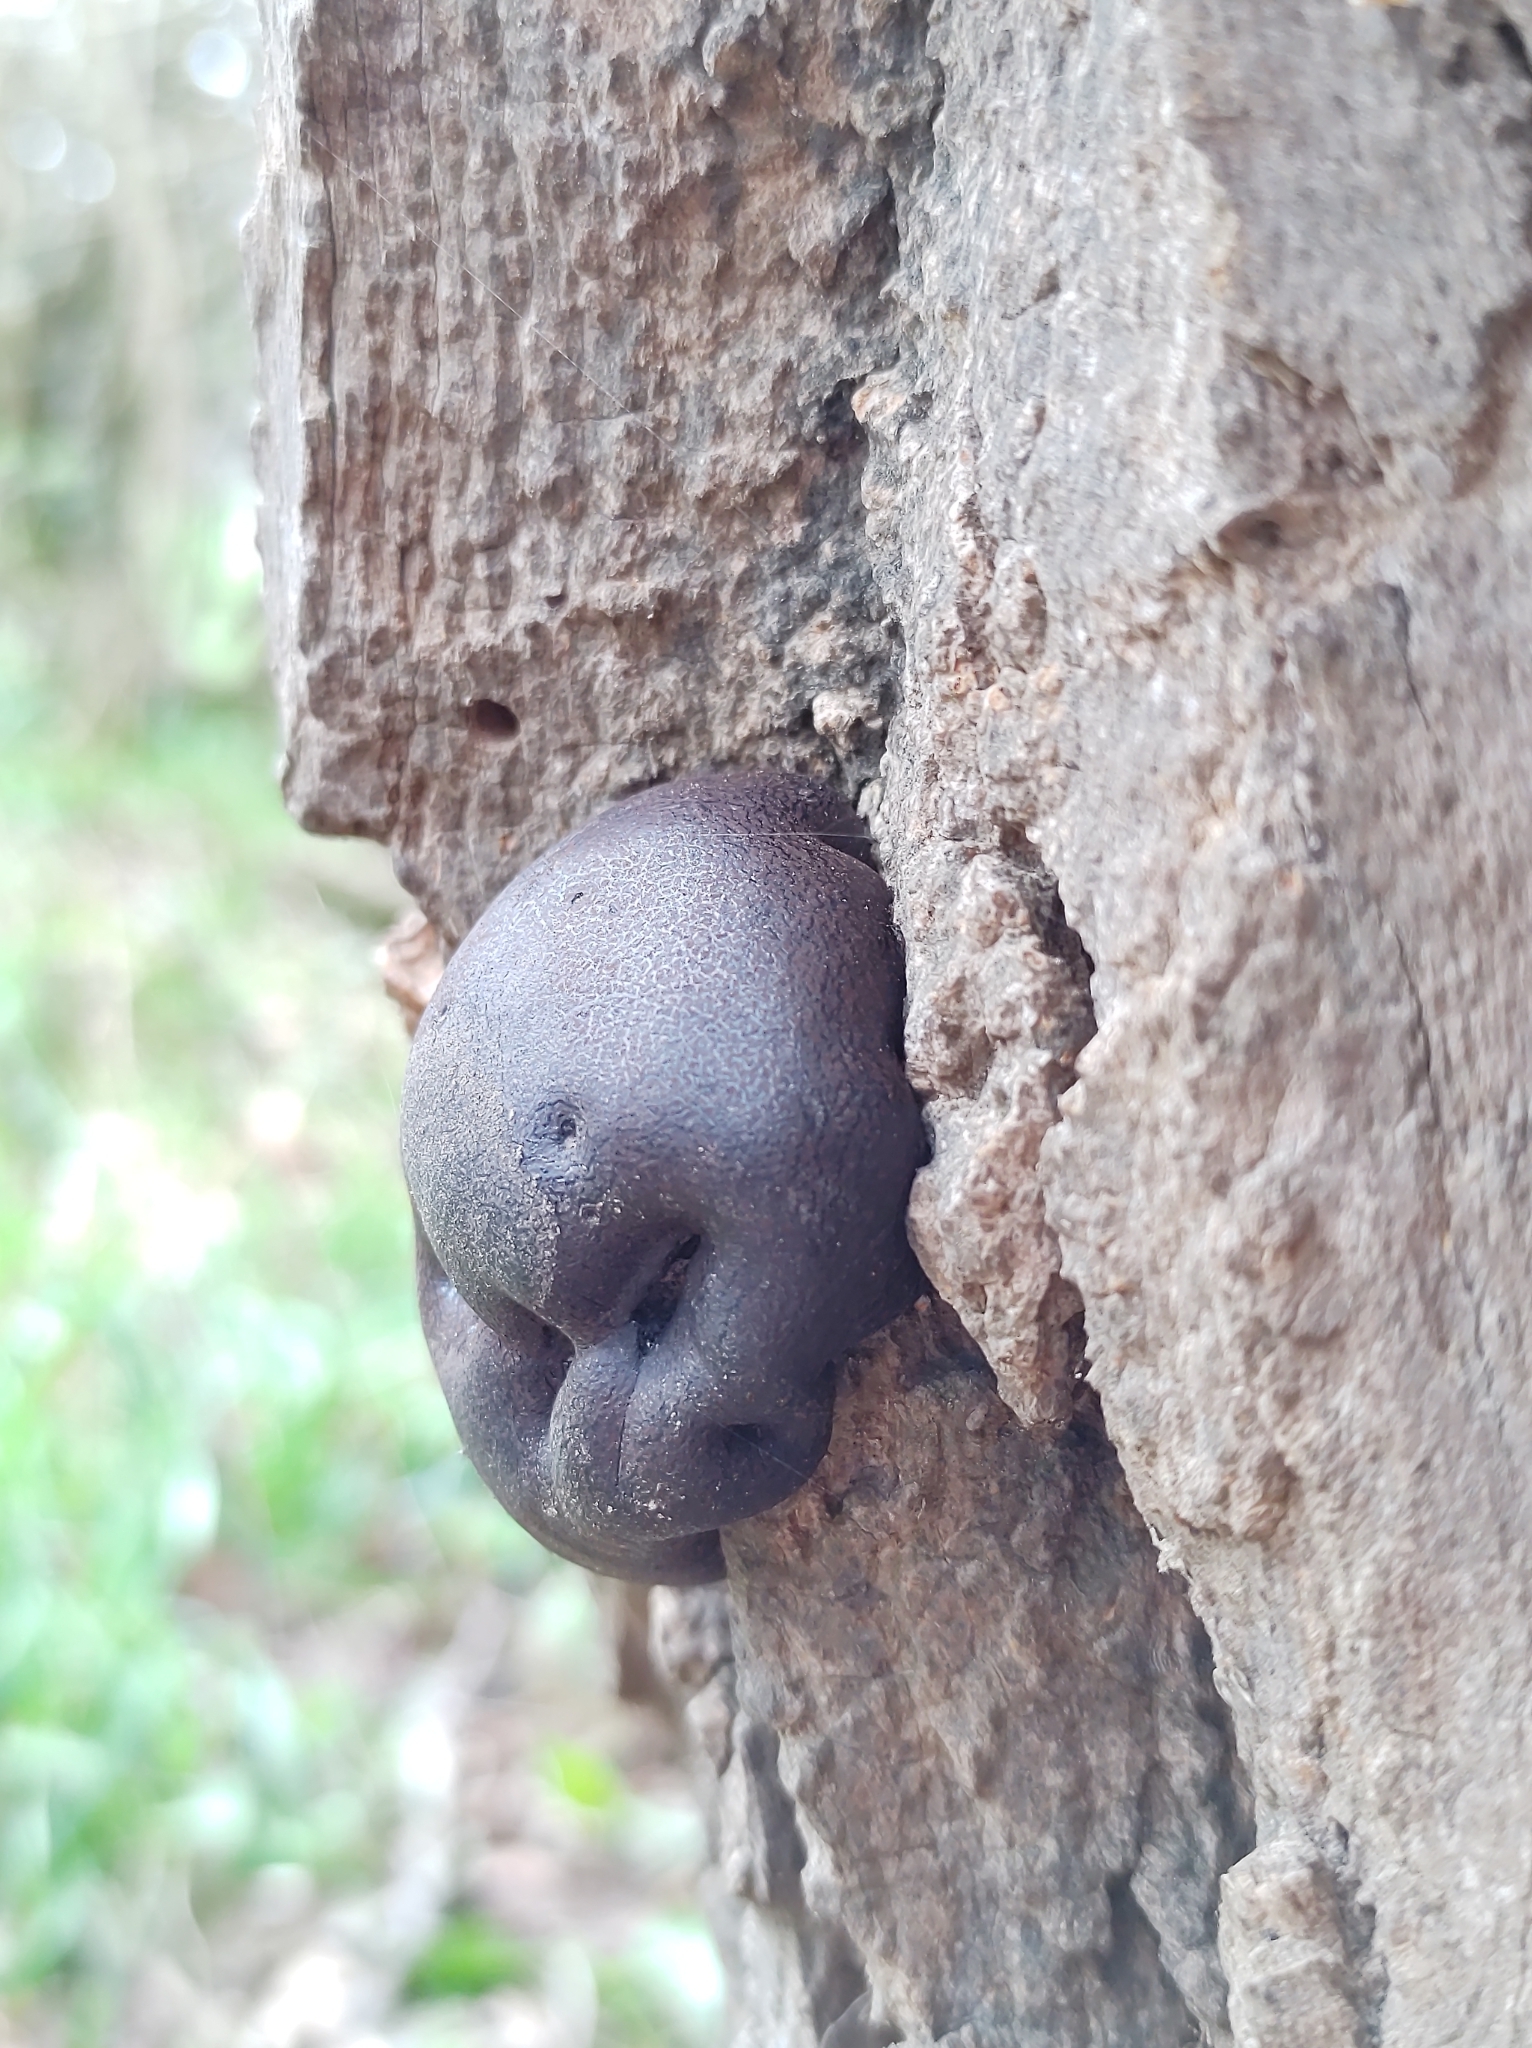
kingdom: Fungi
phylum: Ascomycota
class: Sordariomycetes
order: Xylariales
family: Hypoxylaceae
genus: Daldinia
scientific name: Daldinia concentrica
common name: Cramp balls
